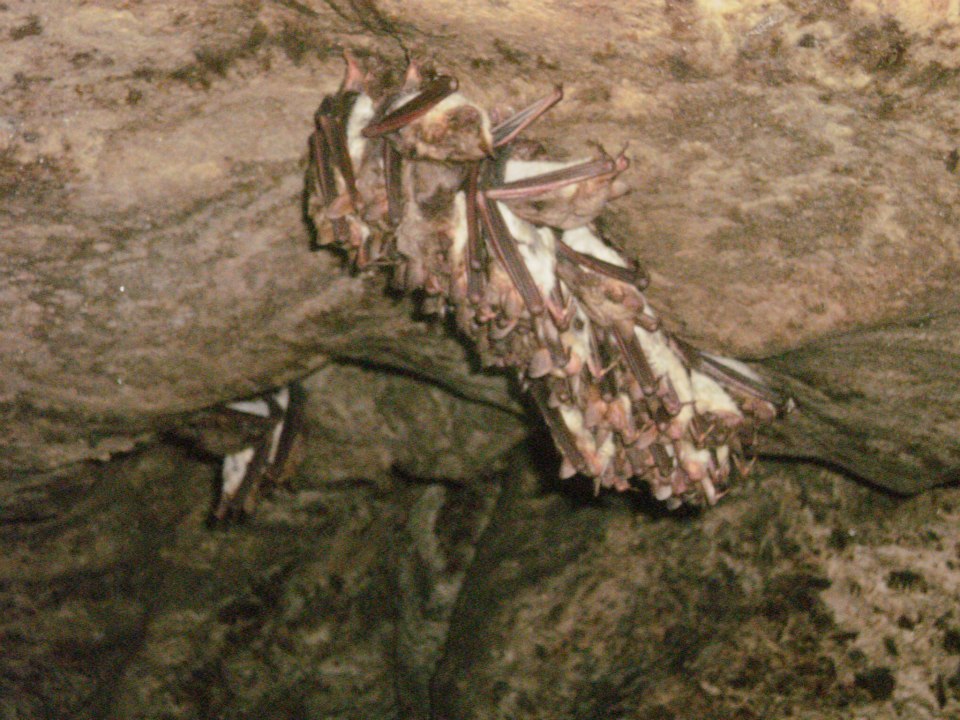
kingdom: Animalia
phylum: Chordata
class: Mammalia
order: Chiroptera
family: Vespertilionidae
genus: Myotis
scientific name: Myotis
